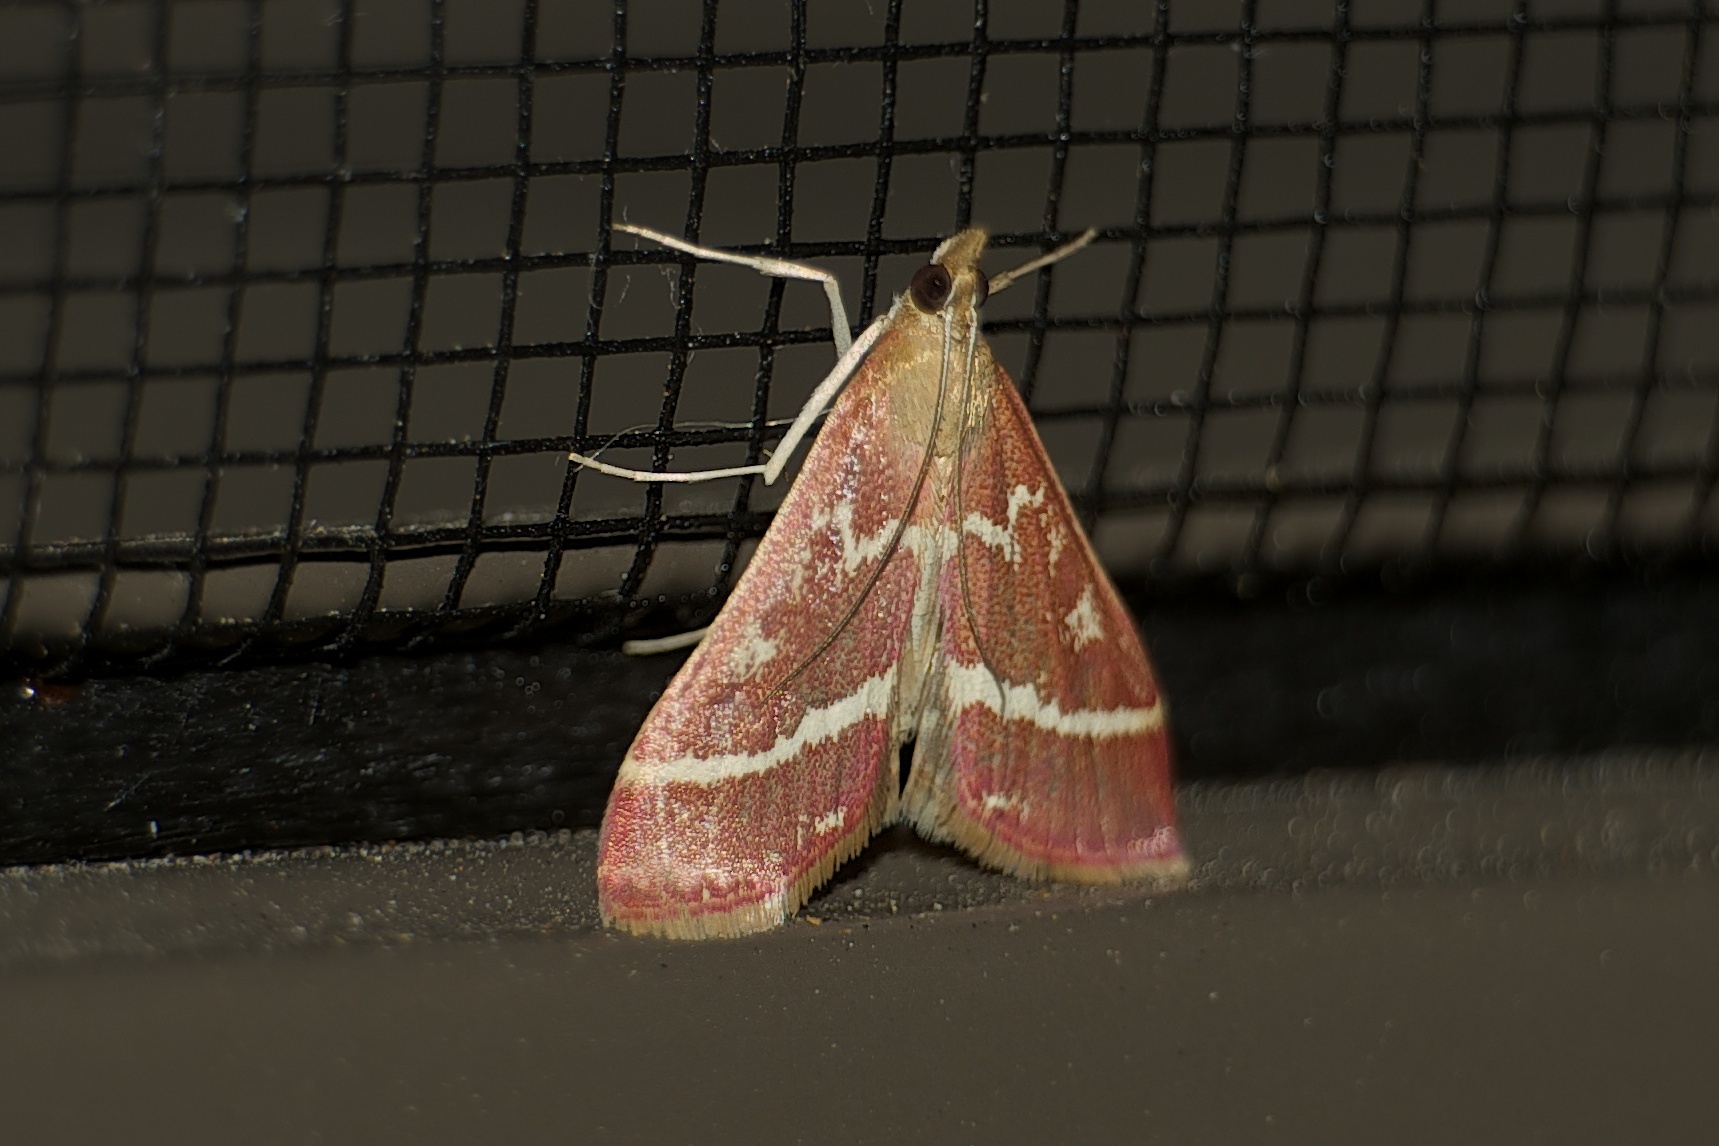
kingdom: Animalia
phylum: Arthropoda
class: Insecta
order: Lepidoptera
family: Crambidae
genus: Pyrausta
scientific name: Pyrausta volupialis
